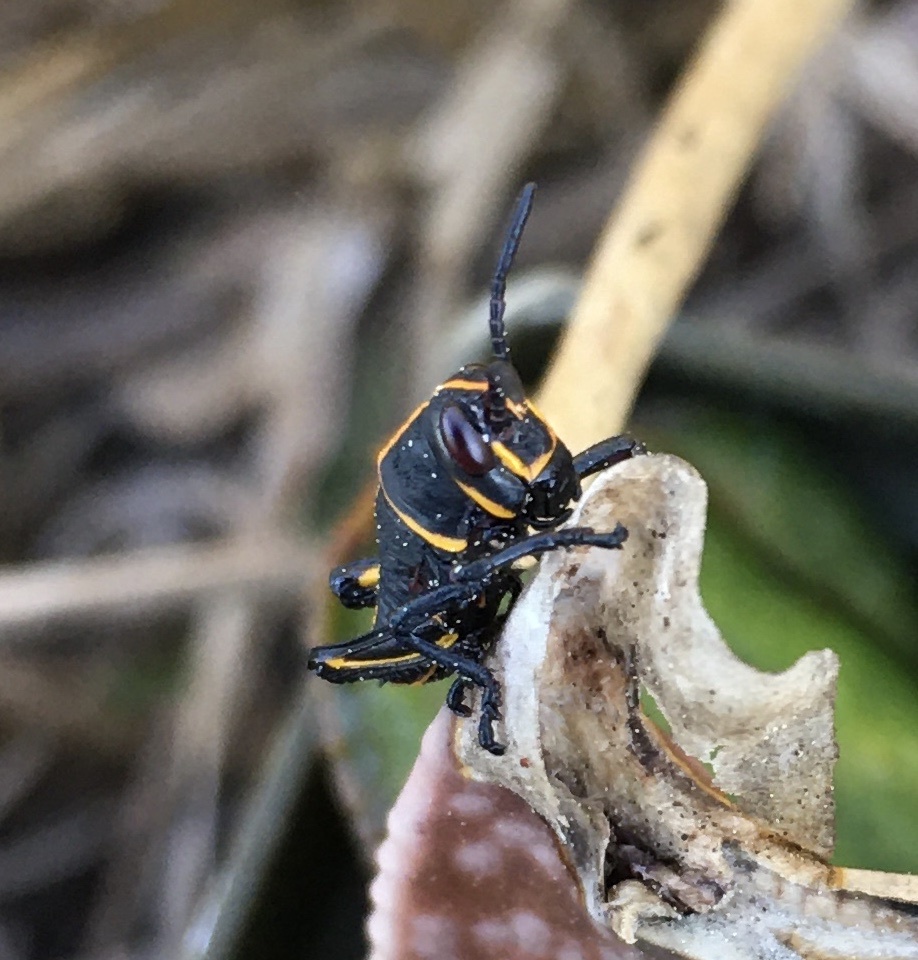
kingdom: Animalia
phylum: Arthropoda
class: Insecta
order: Orthoptera
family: Romaleidae
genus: Romalea
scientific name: Romalea microptera
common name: Eastern lubber grasshopper
